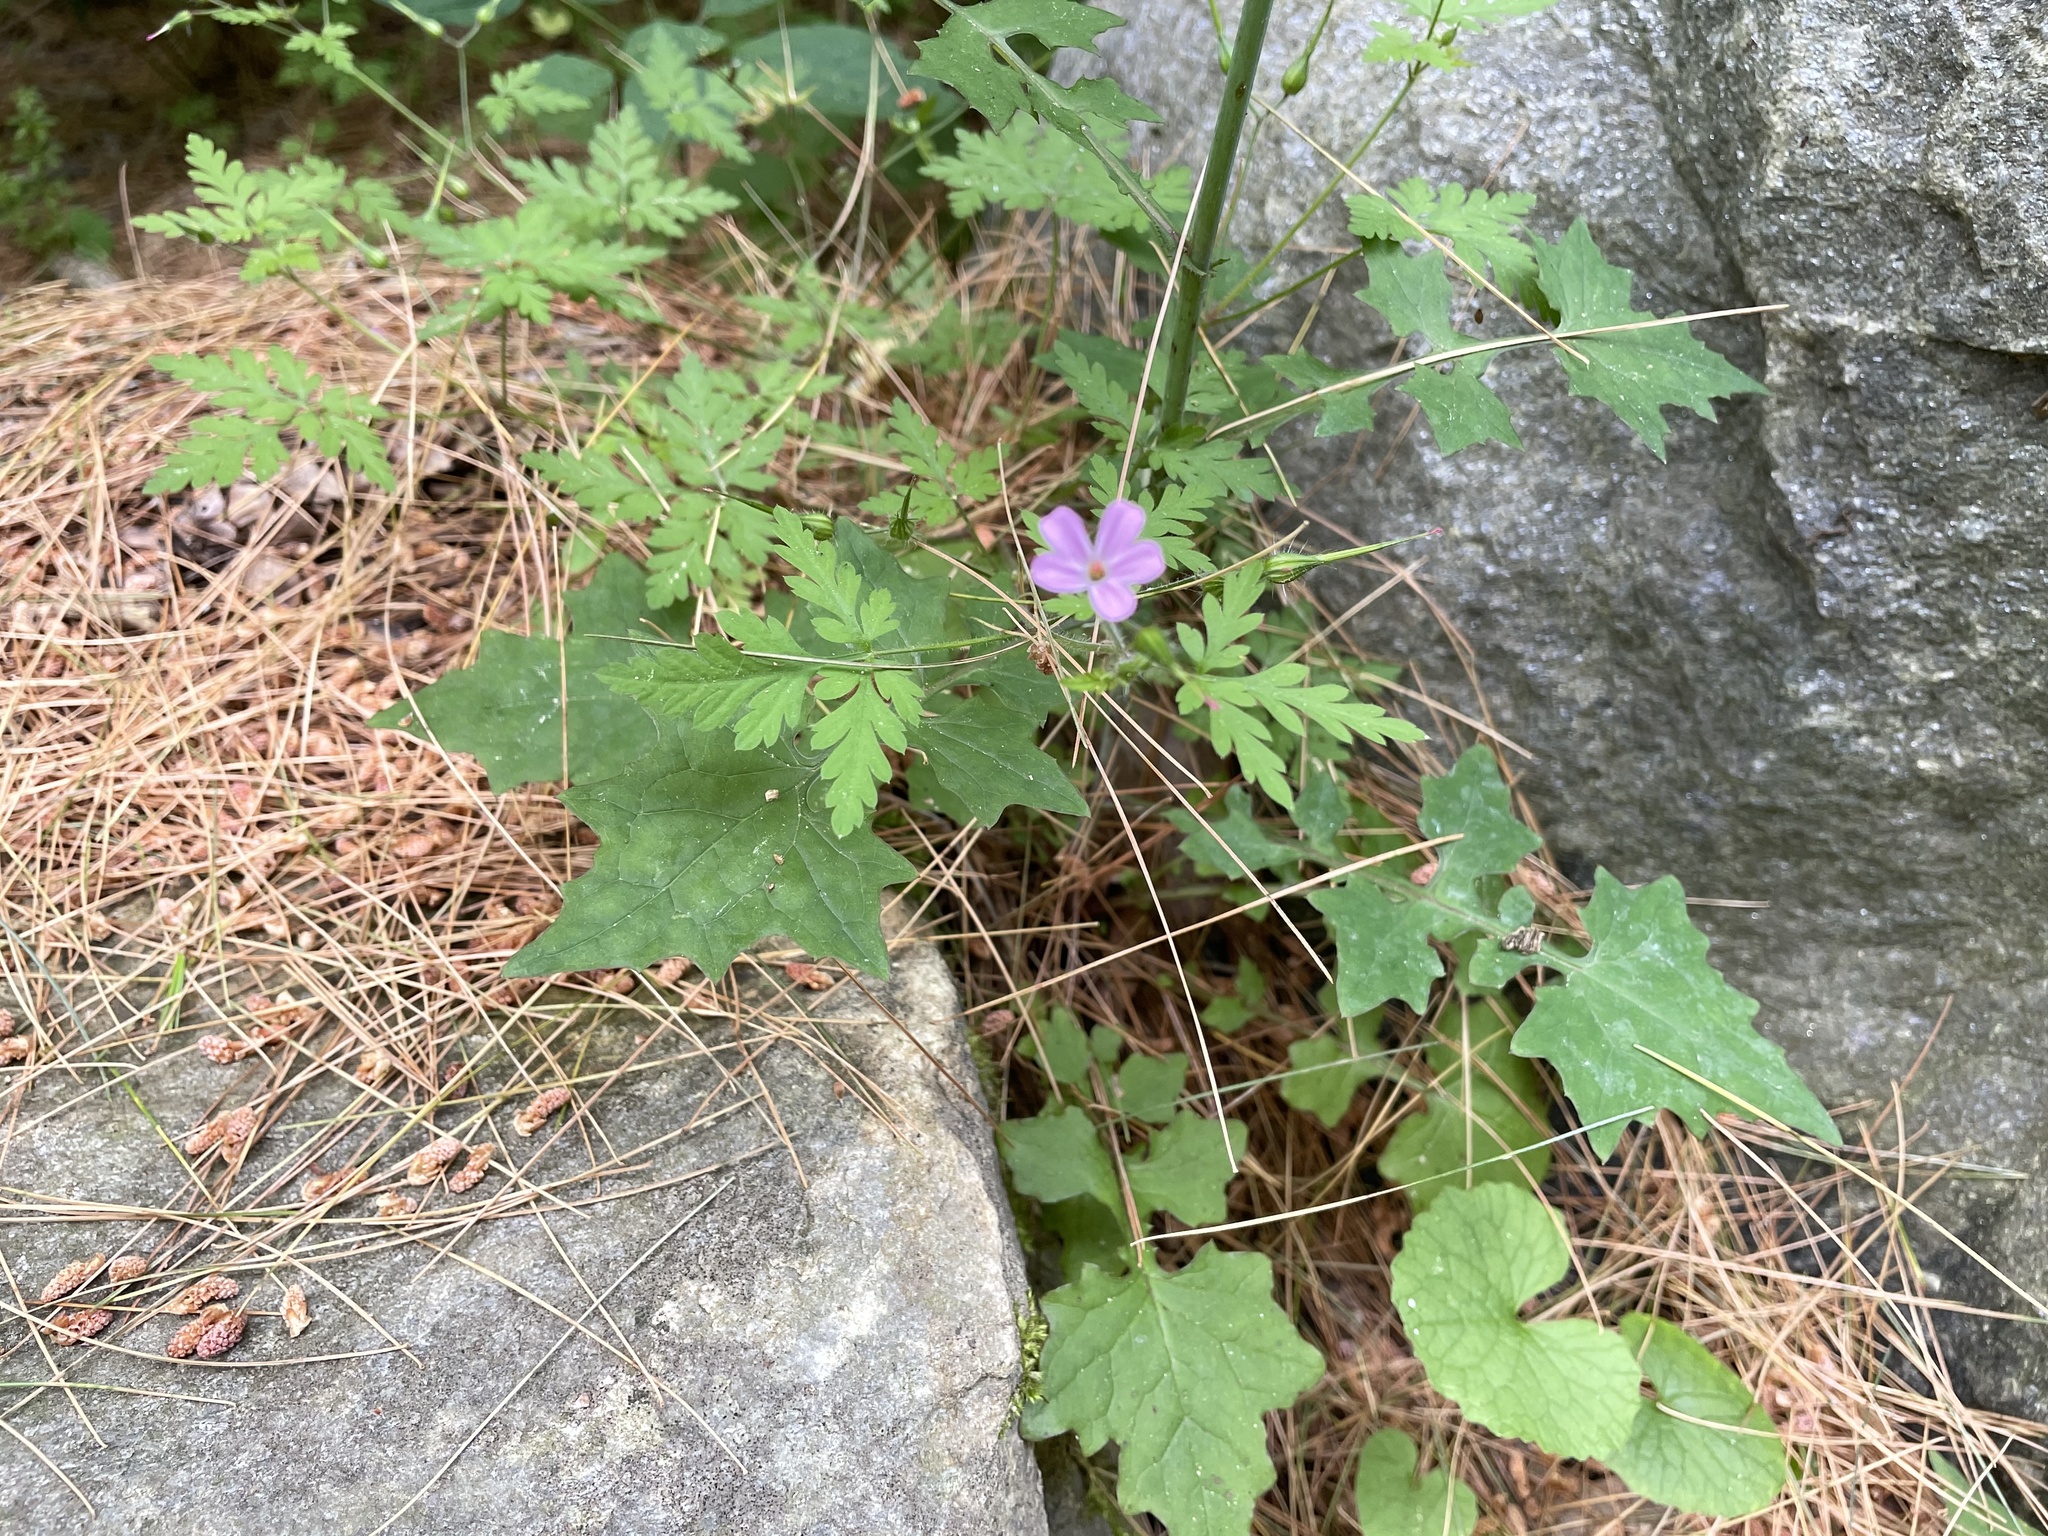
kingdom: Plantae
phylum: Tracheophyta
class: Magnoliopsida
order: Geraniales
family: Geraniaceae
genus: Geranium
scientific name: Geranium robertianum
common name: Herb-robert
